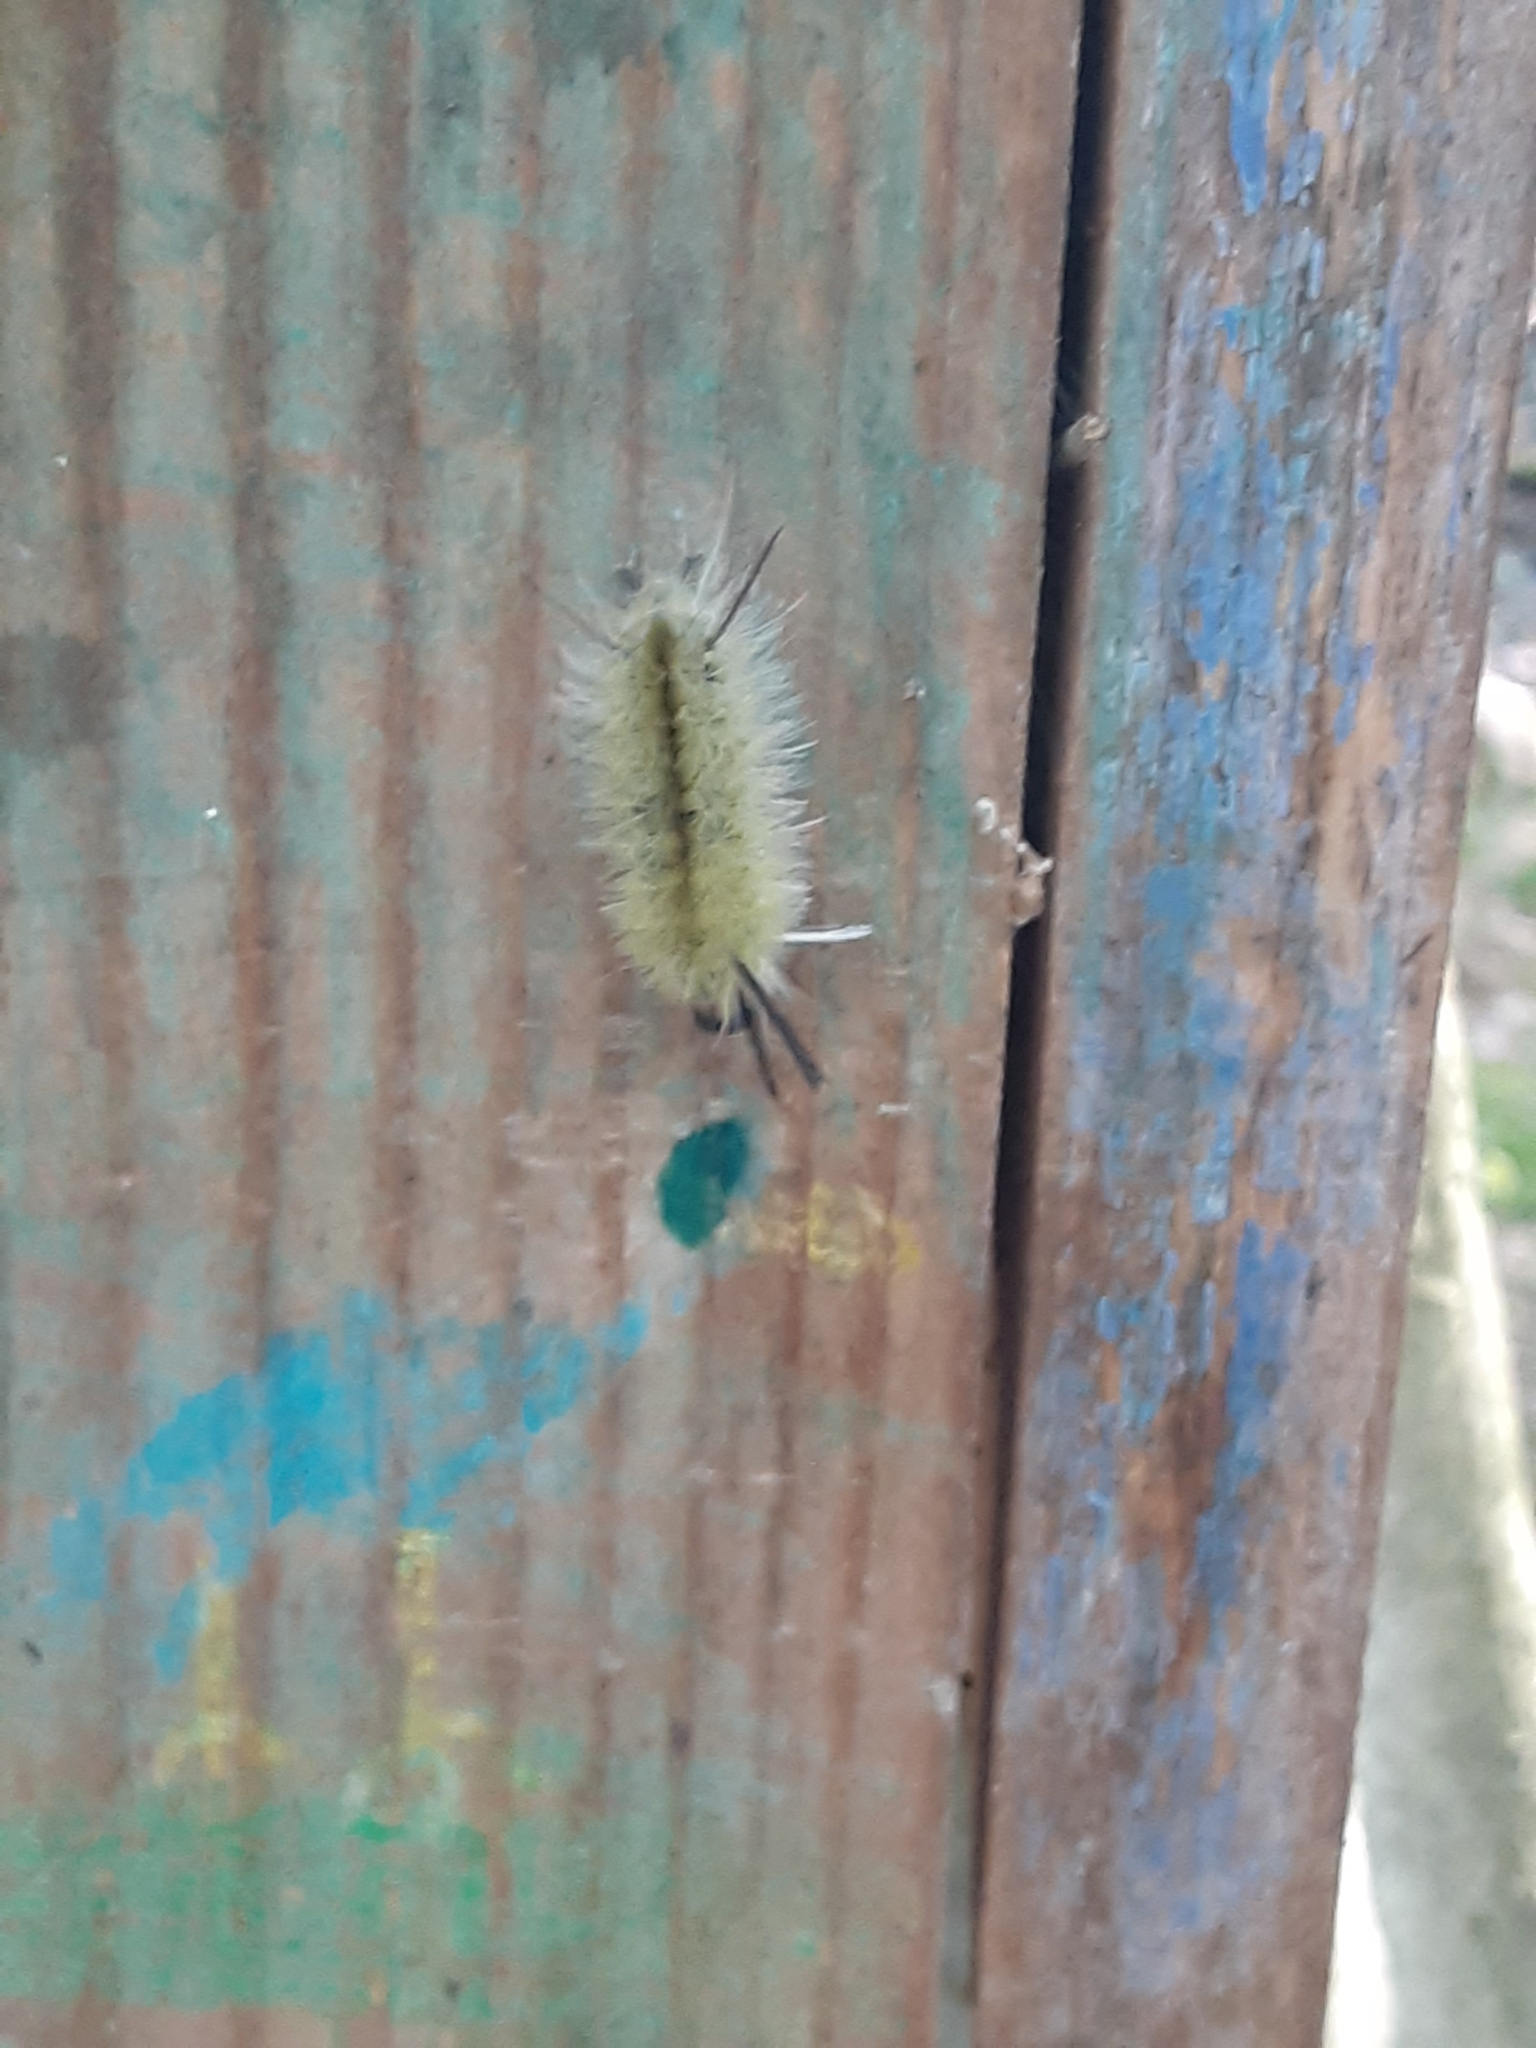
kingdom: Animalia
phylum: Arthropoda
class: Insecta
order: Lepidoptera
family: Erebidae
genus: Halysidota
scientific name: Halysidota tessellaris
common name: Banded tussock moth
